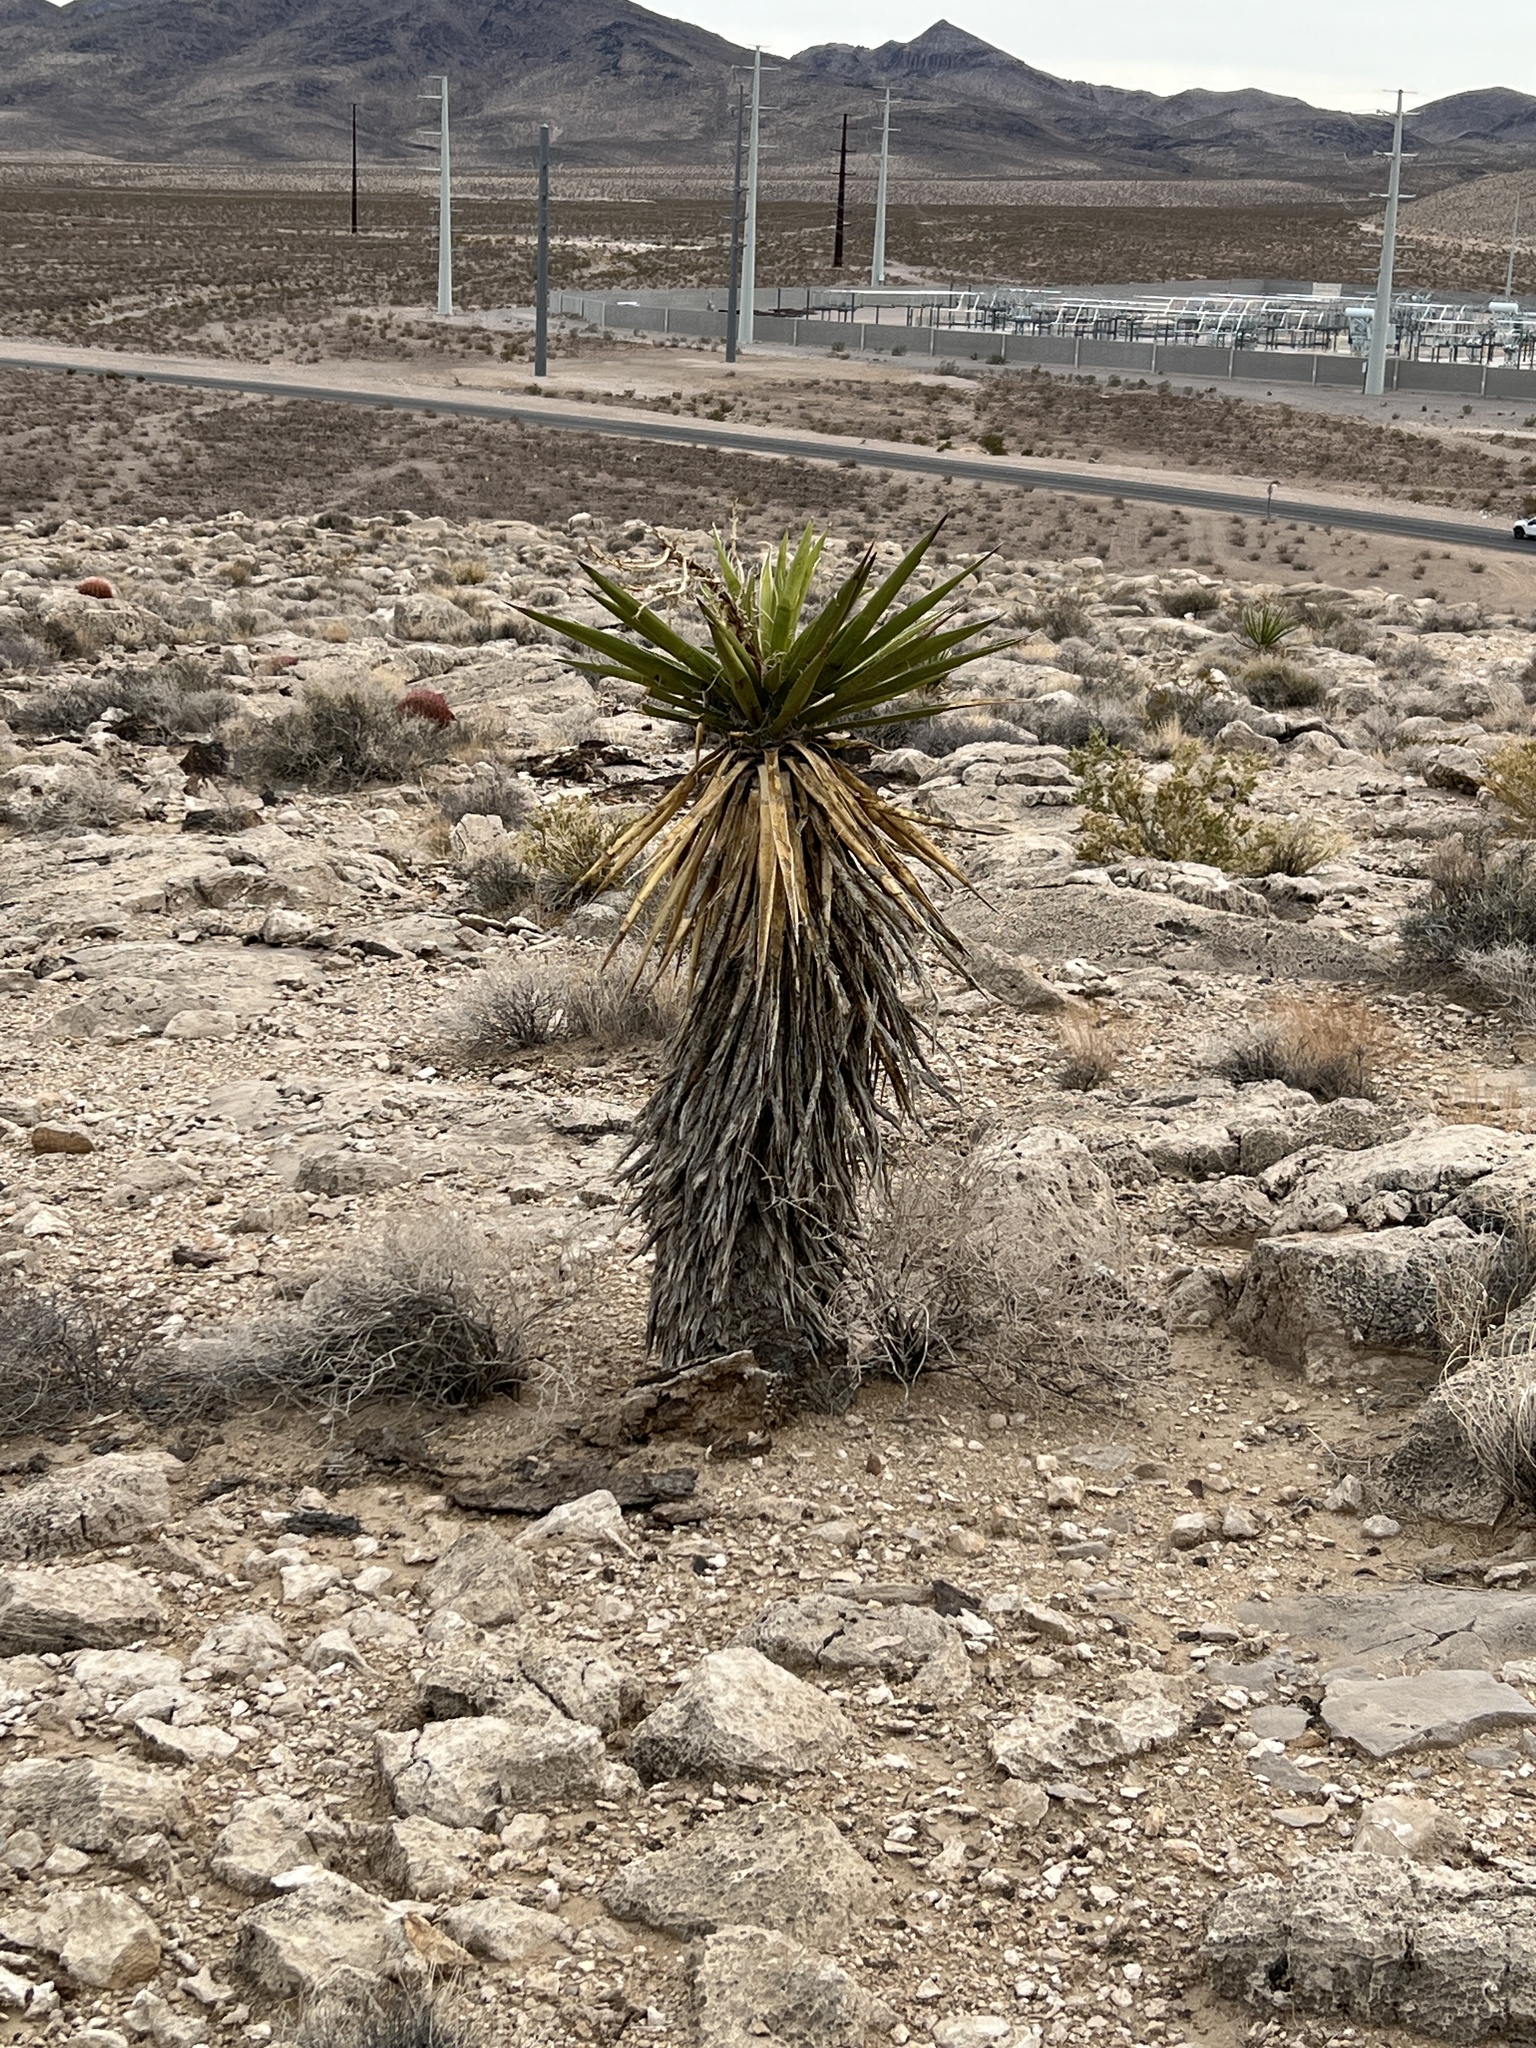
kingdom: Plantae
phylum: Tracheophyta
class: Liliopsida
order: Asparagales
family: Asparagaceae
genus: Yucca
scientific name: Yucca schidigera
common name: Mojave yucca
